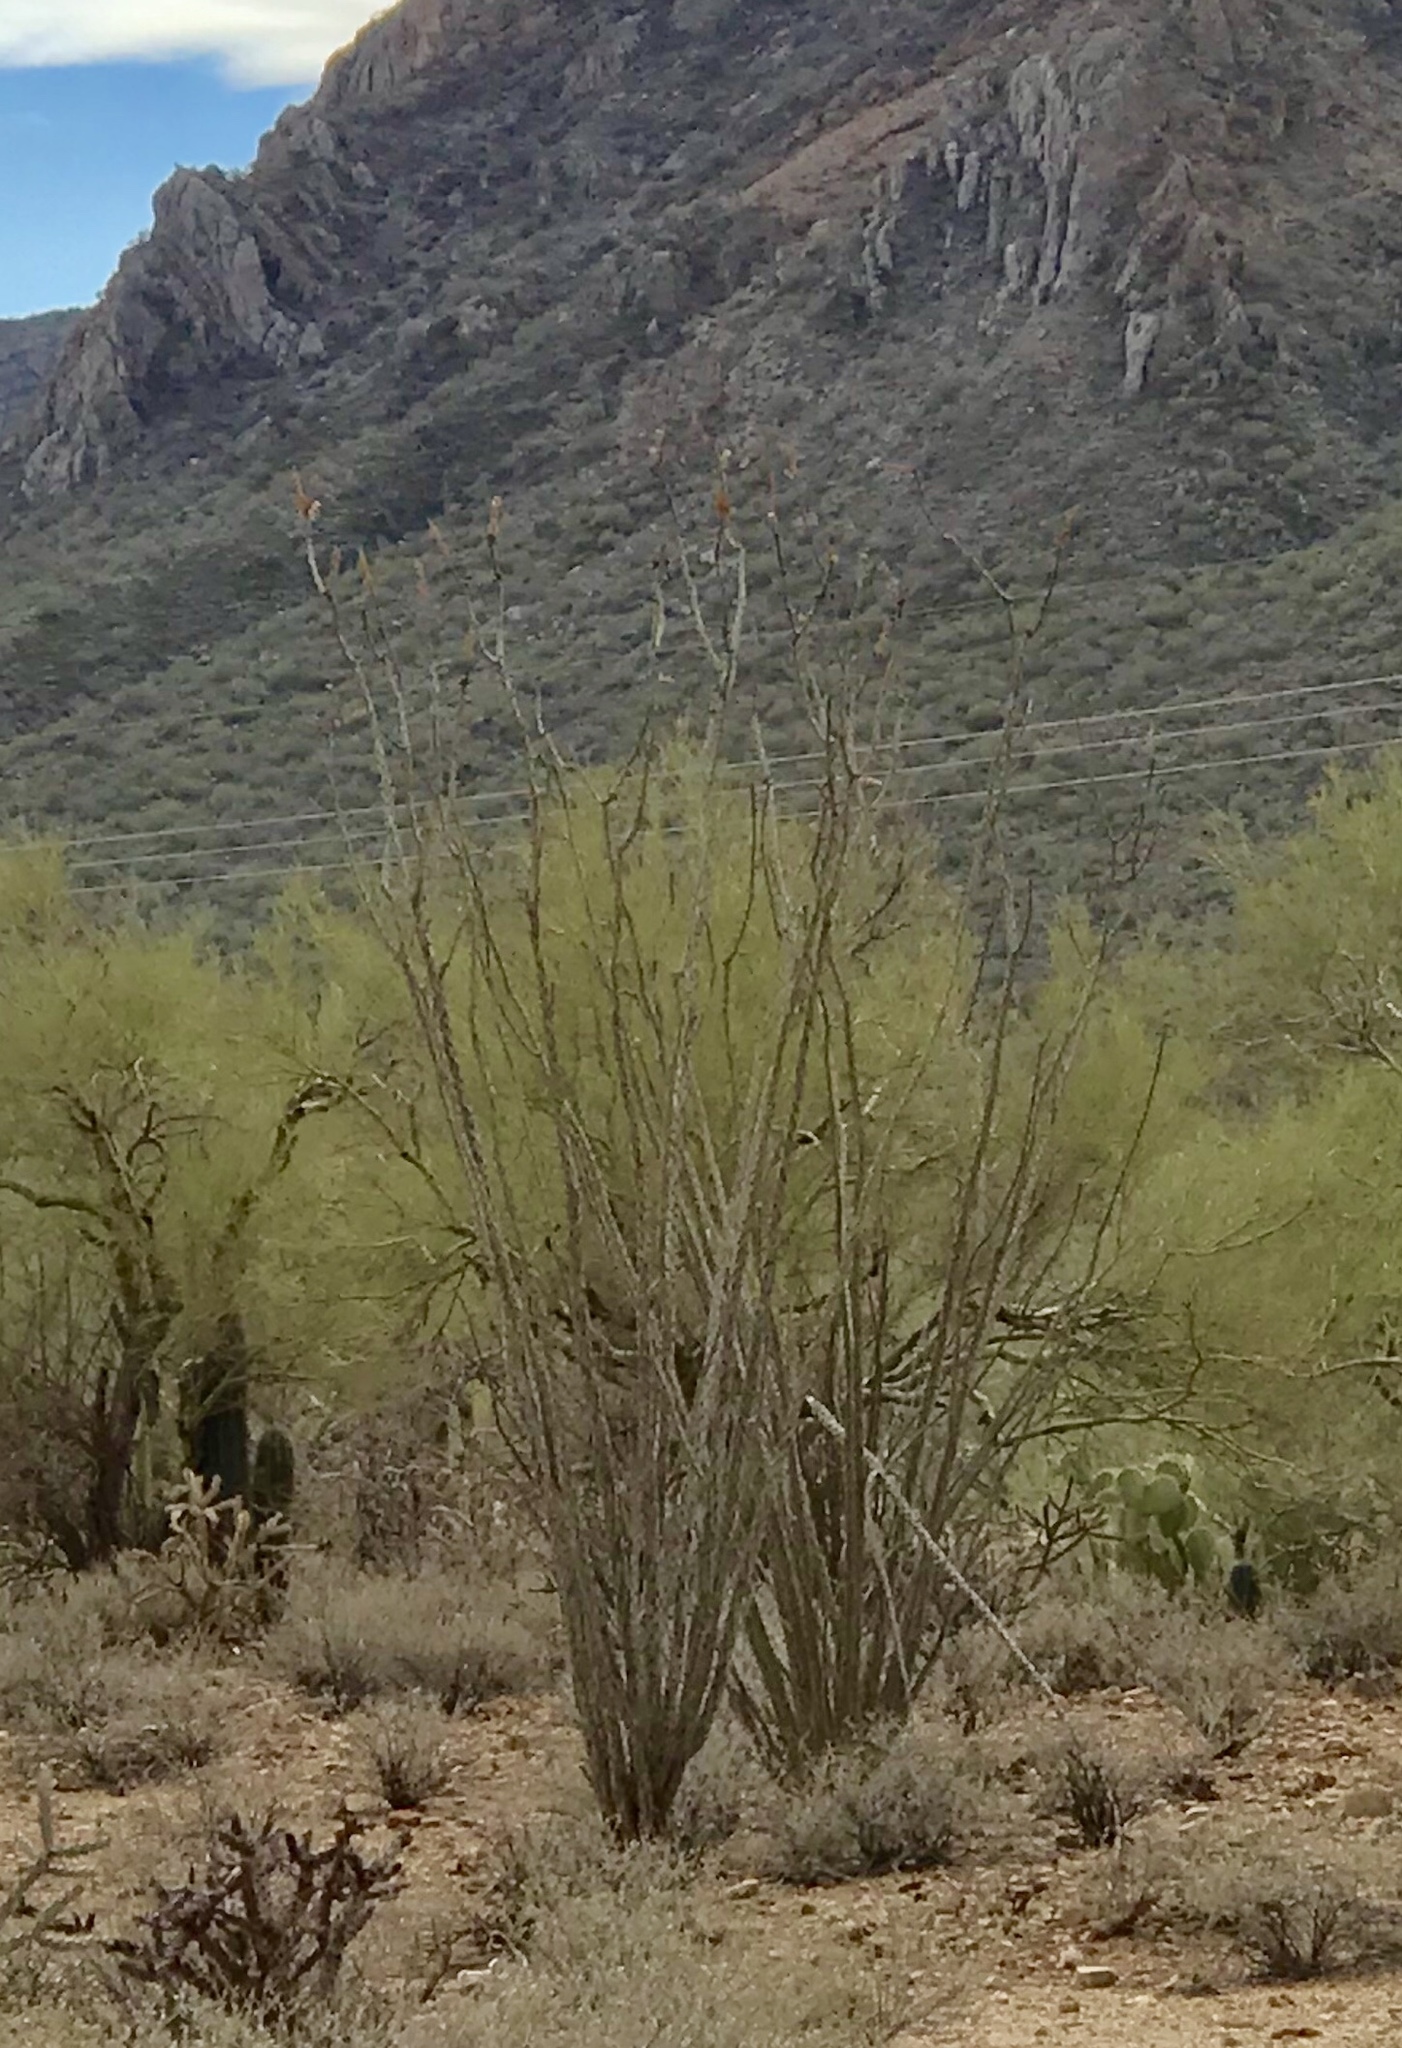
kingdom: Plantae
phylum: Tracheophyta
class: Magnoliopsida
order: Ericales
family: Fouquieriaceae
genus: Fouquieria
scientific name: Fouquieria splendens
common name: Vine-cactus
